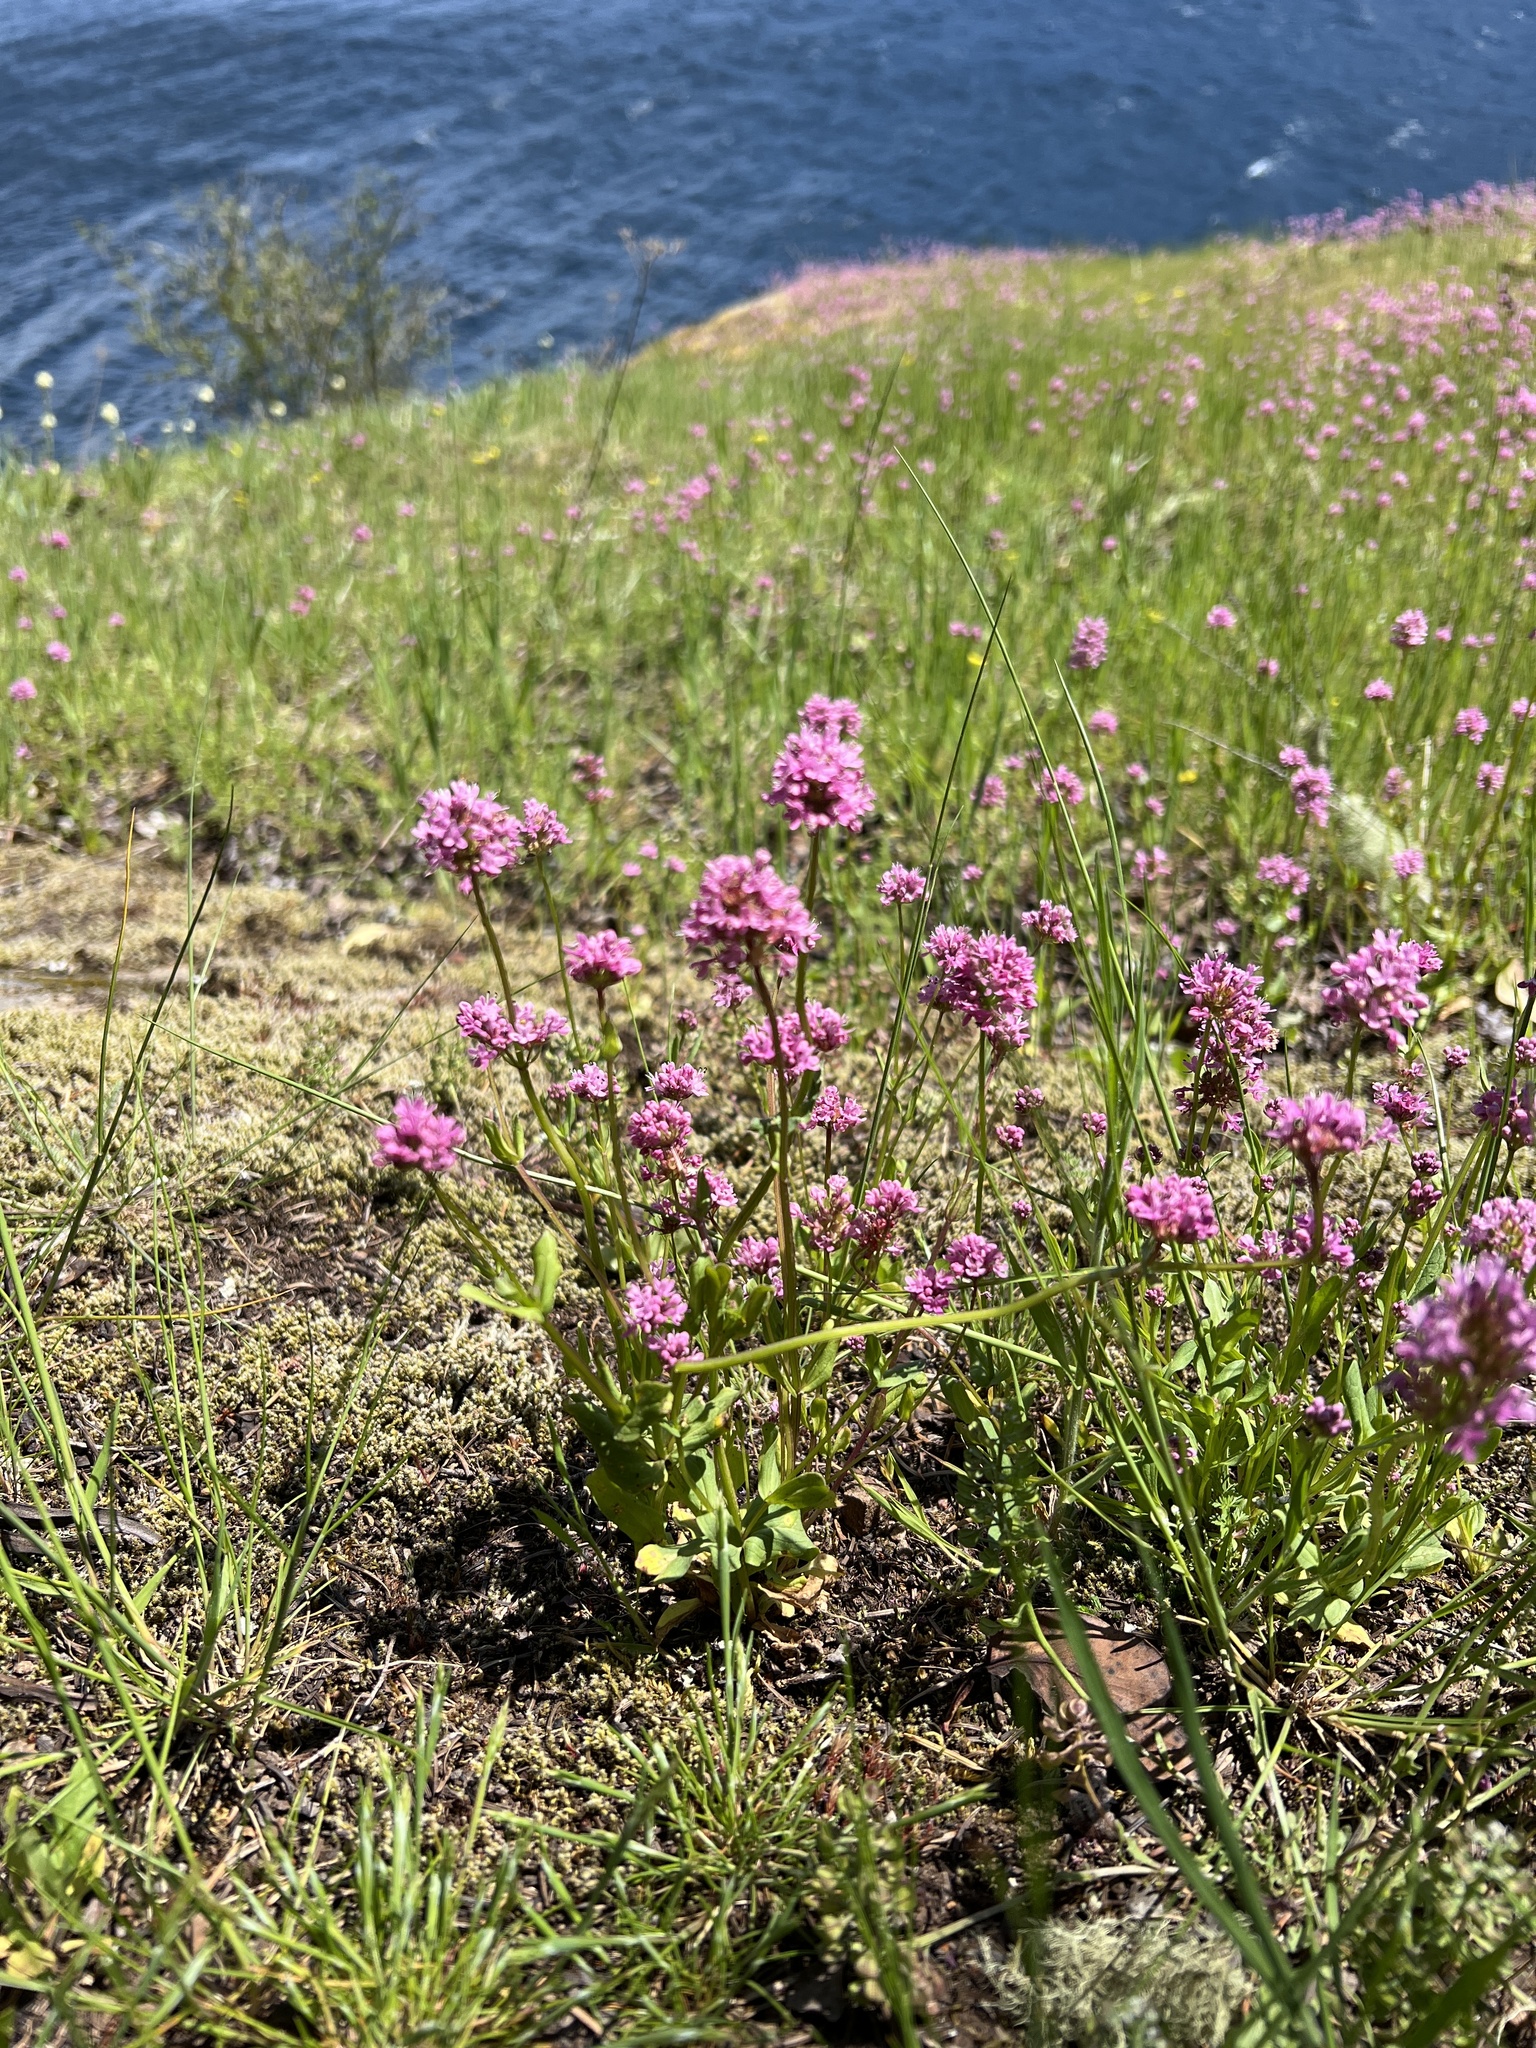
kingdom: Plantae
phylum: Tracheophyta
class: Magnoliopsida
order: Dipsacales
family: Caprifoliaceae
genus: Plectritis
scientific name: Plectritis congesta
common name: Pink plectritis
